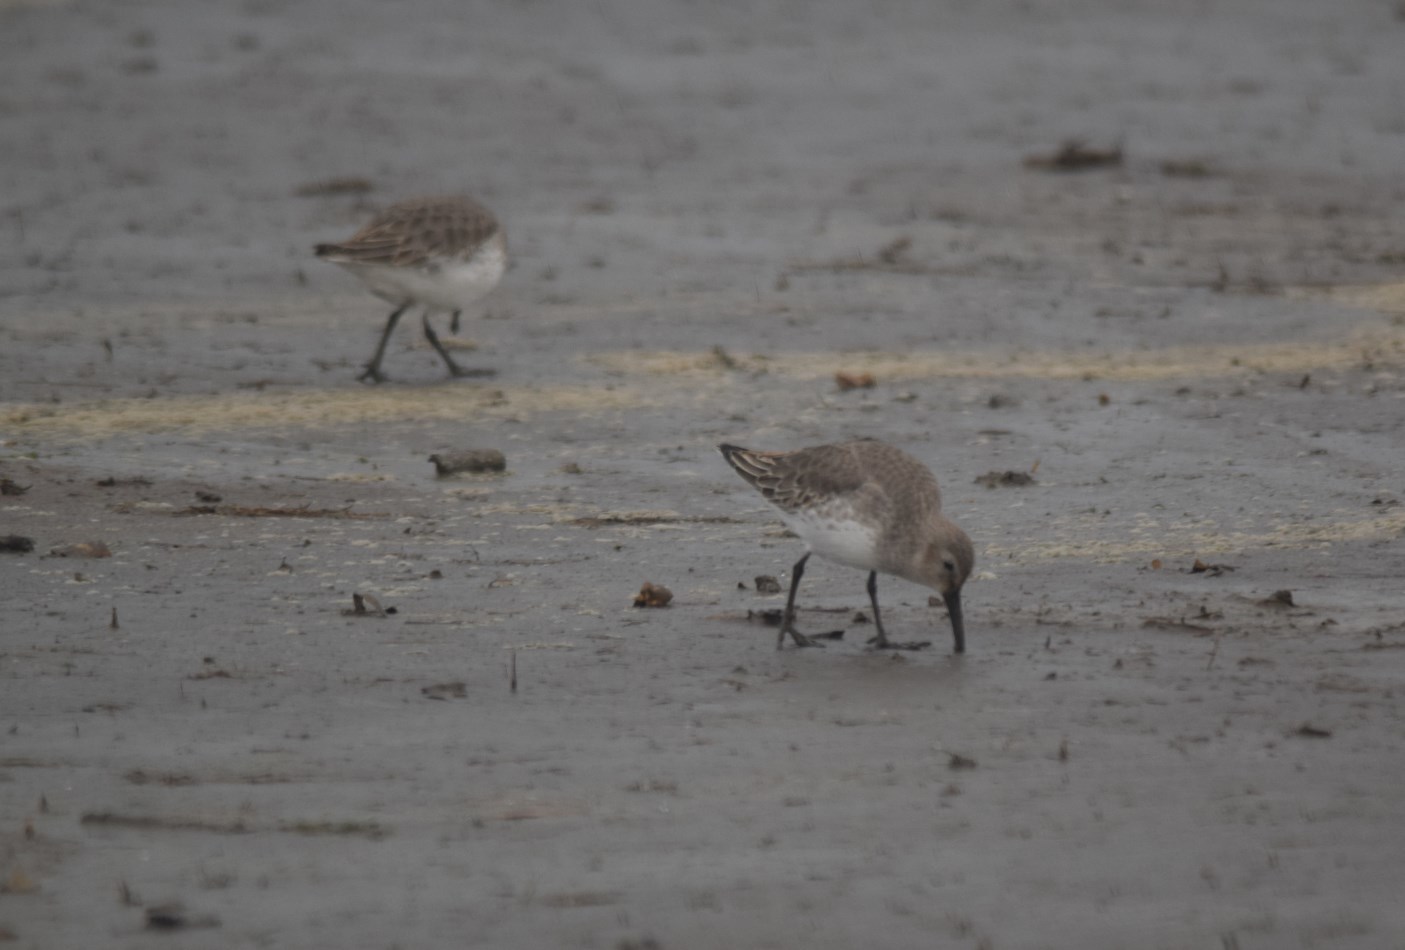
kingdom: Animalia
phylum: Chordata
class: Aves
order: Charadriiformes
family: Scolopacidae
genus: Calidris
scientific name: Calidris alpina
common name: Dunlin
